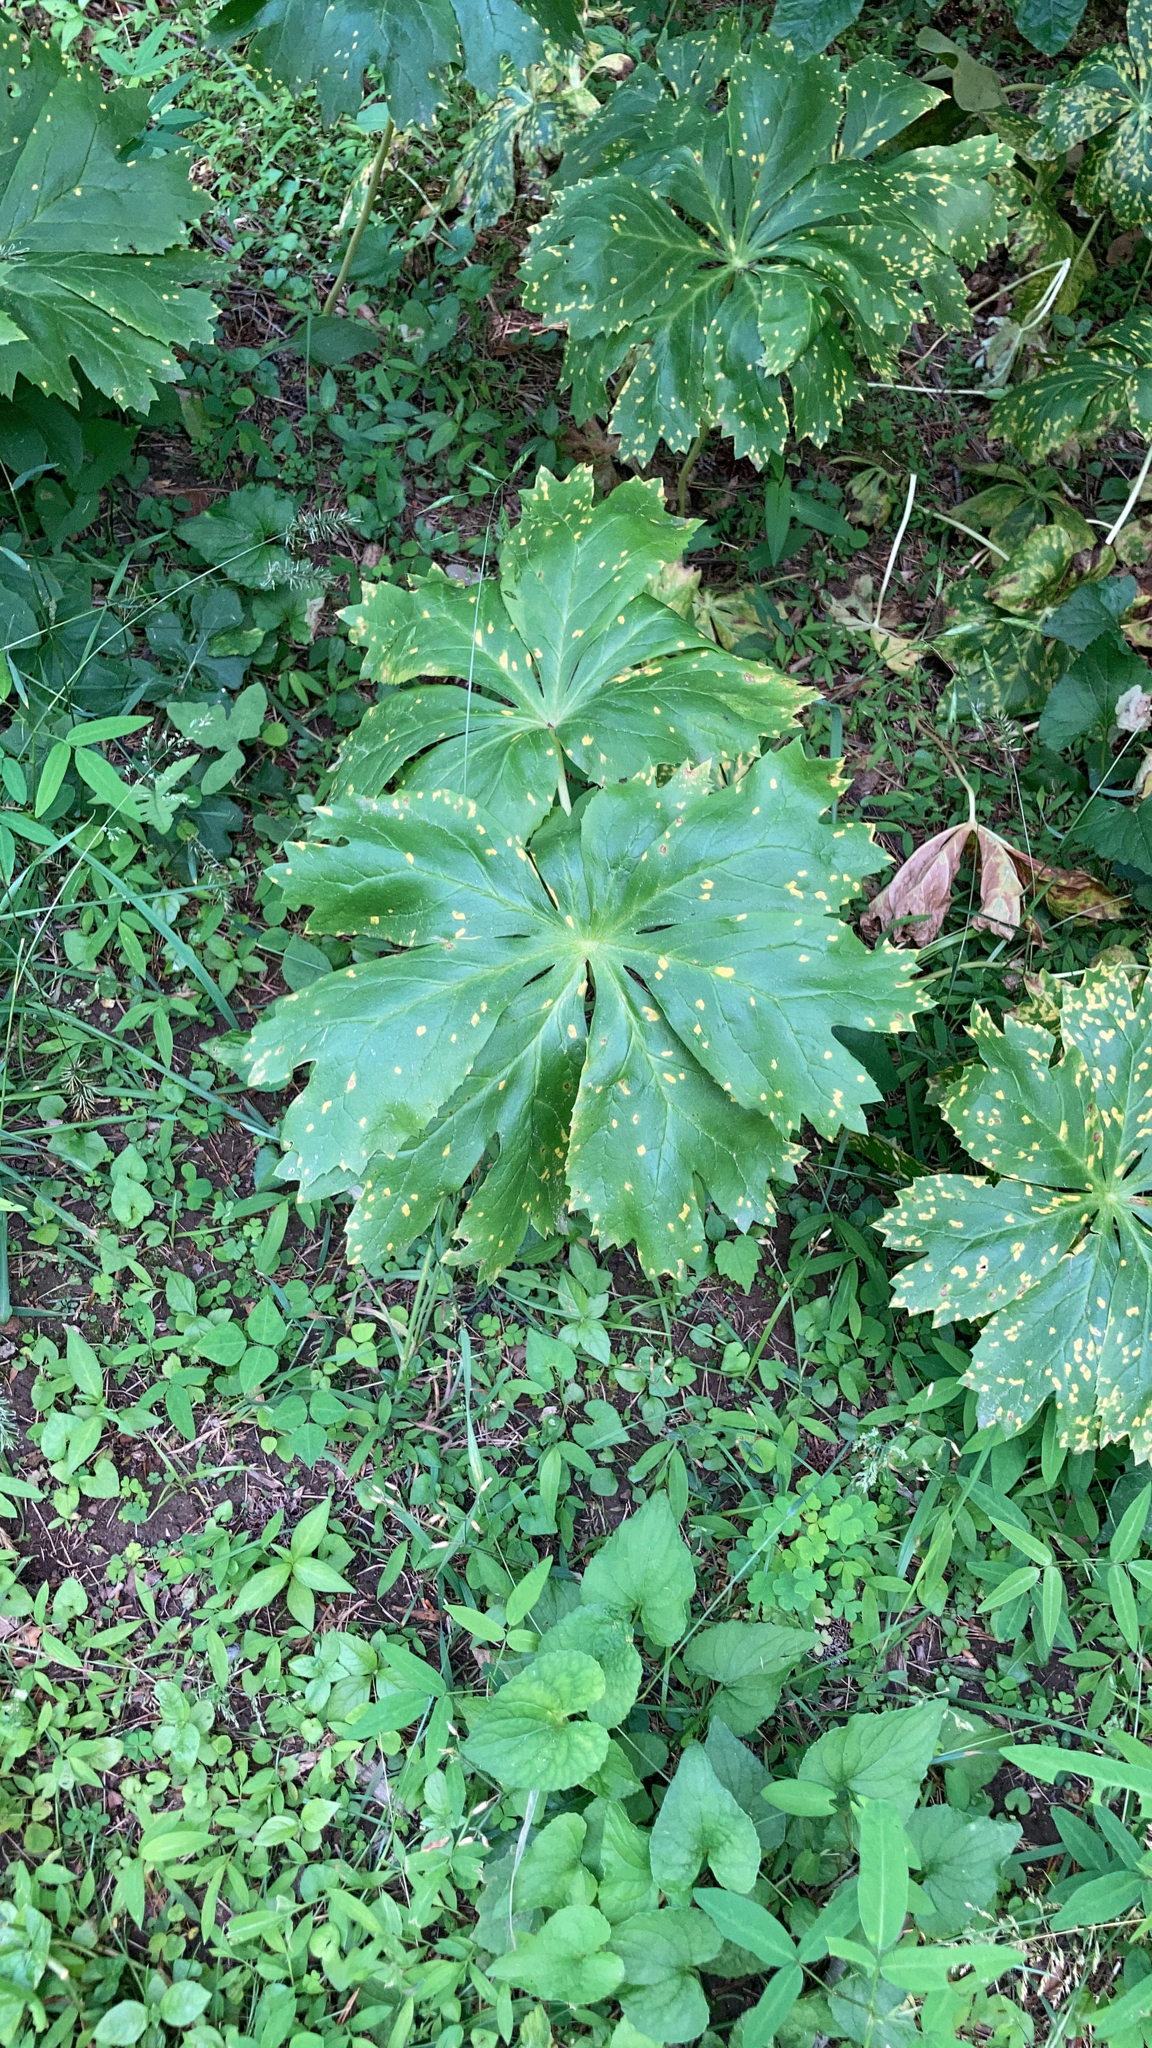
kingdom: Fungi
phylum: Basidiomycota
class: Pucciniomycetes
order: Pucciniales
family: Pucciniaceae
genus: Puccinia
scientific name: Puccinia podophylli
